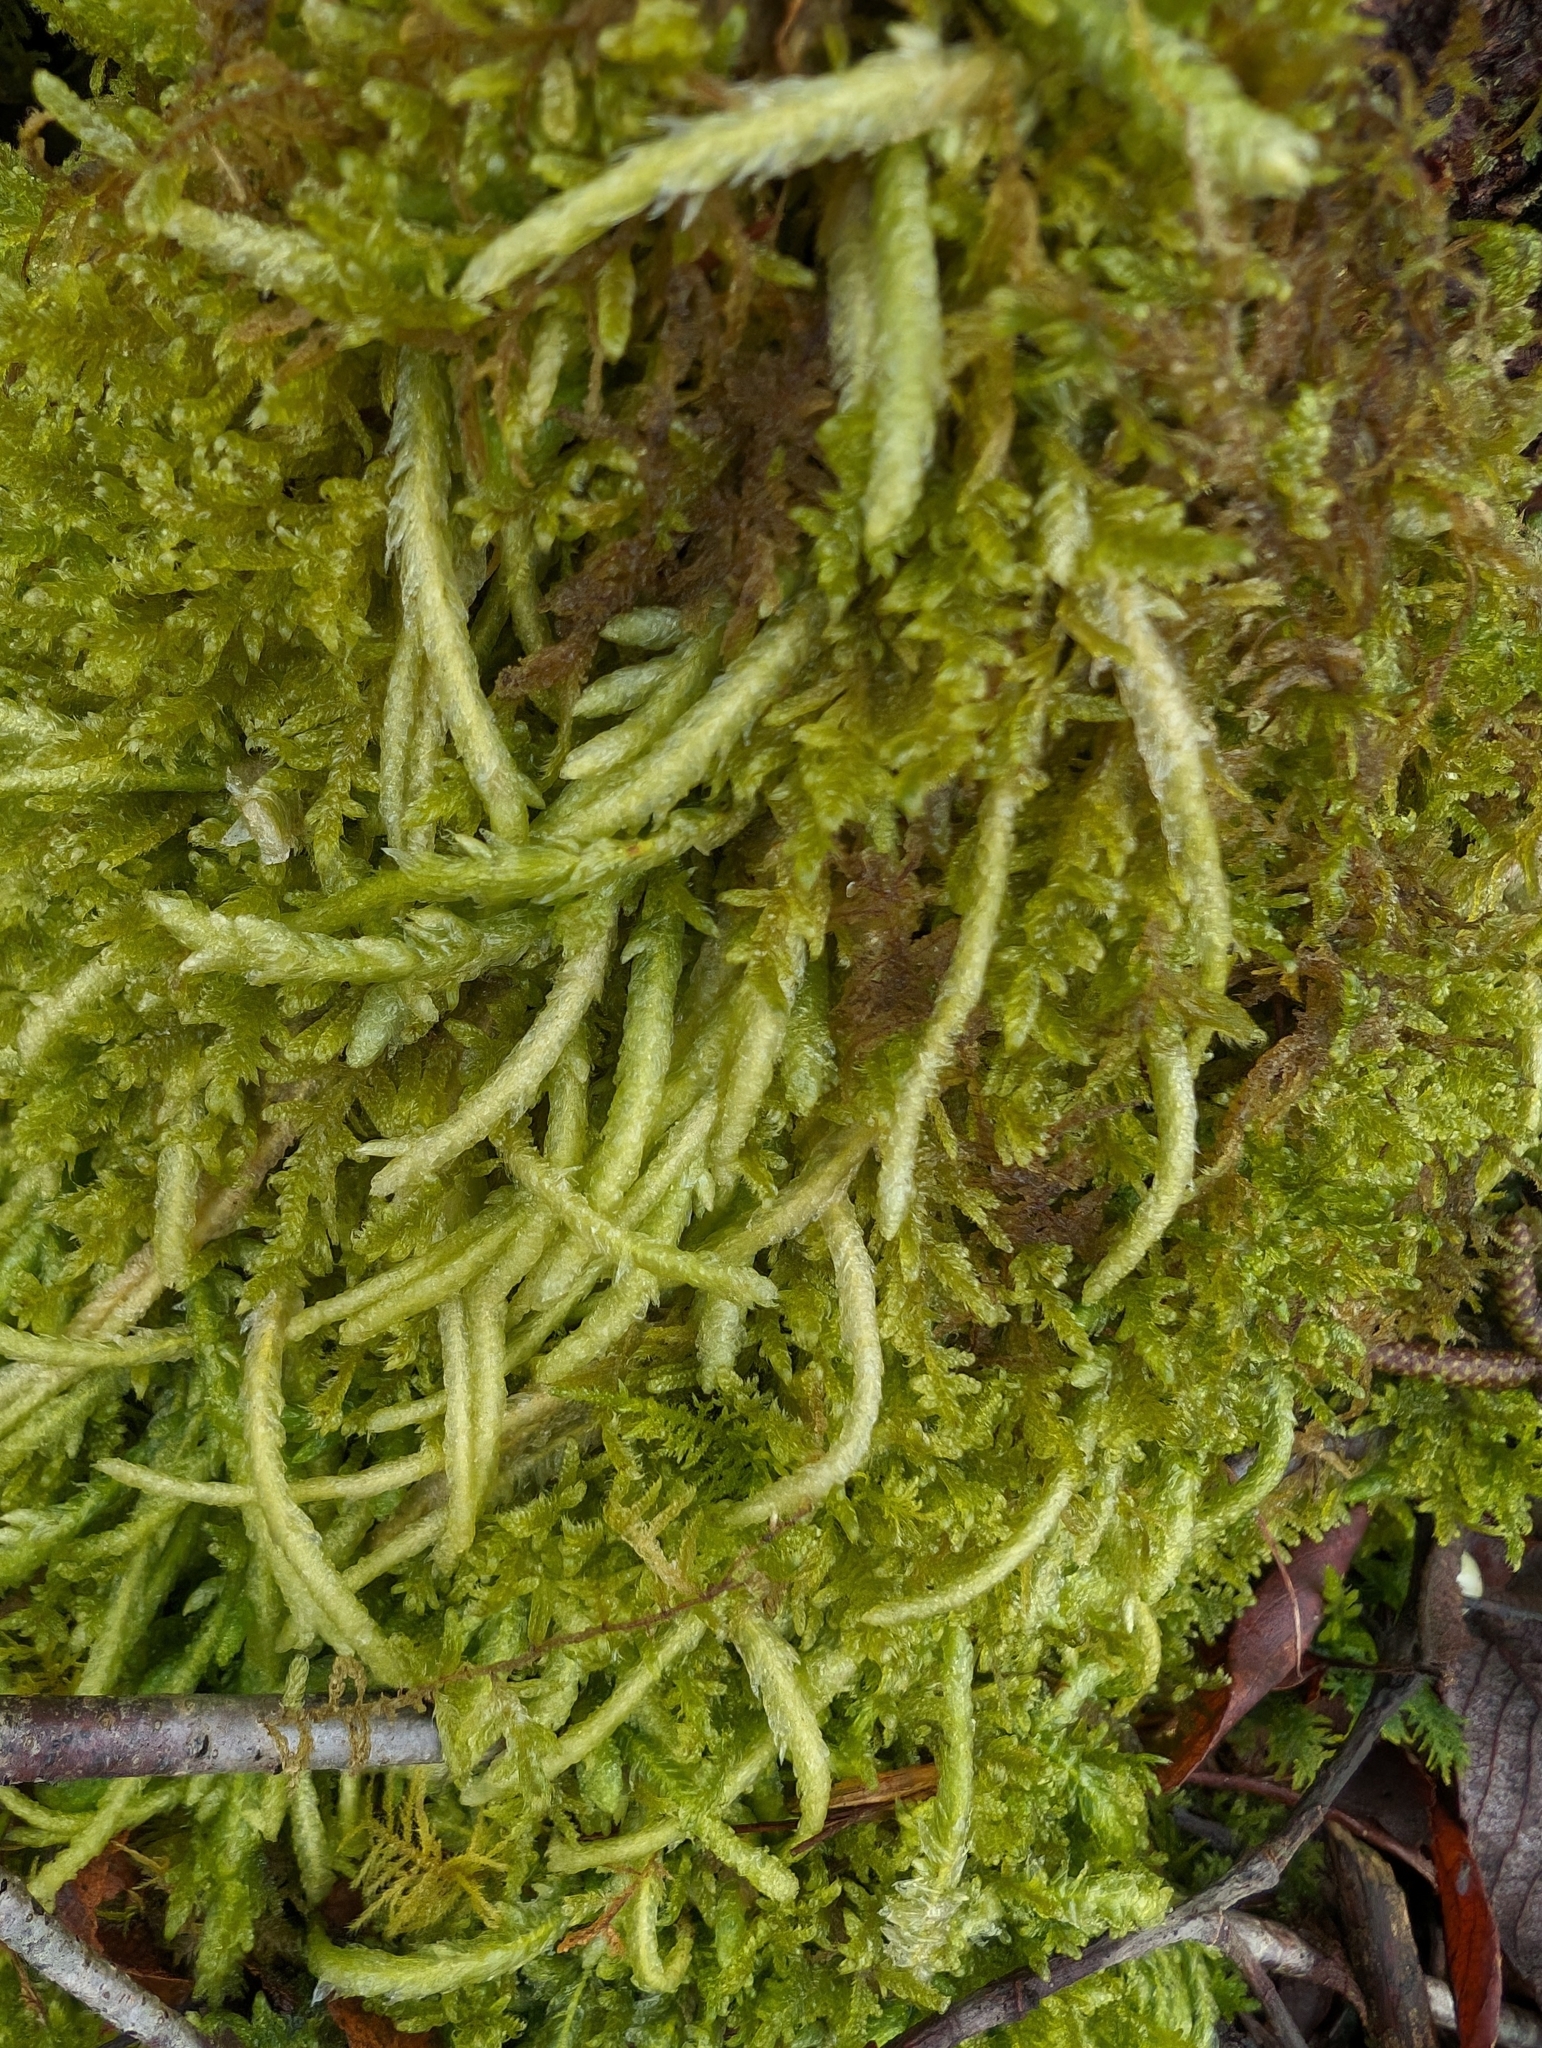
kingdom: Plantae
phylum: Bryophyta
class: Bryopsida
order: Hypnales
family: Plagiotheciaceae
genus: Plagiothecium
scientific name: Plagiothecium undulatum
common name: Waved silk-moss
